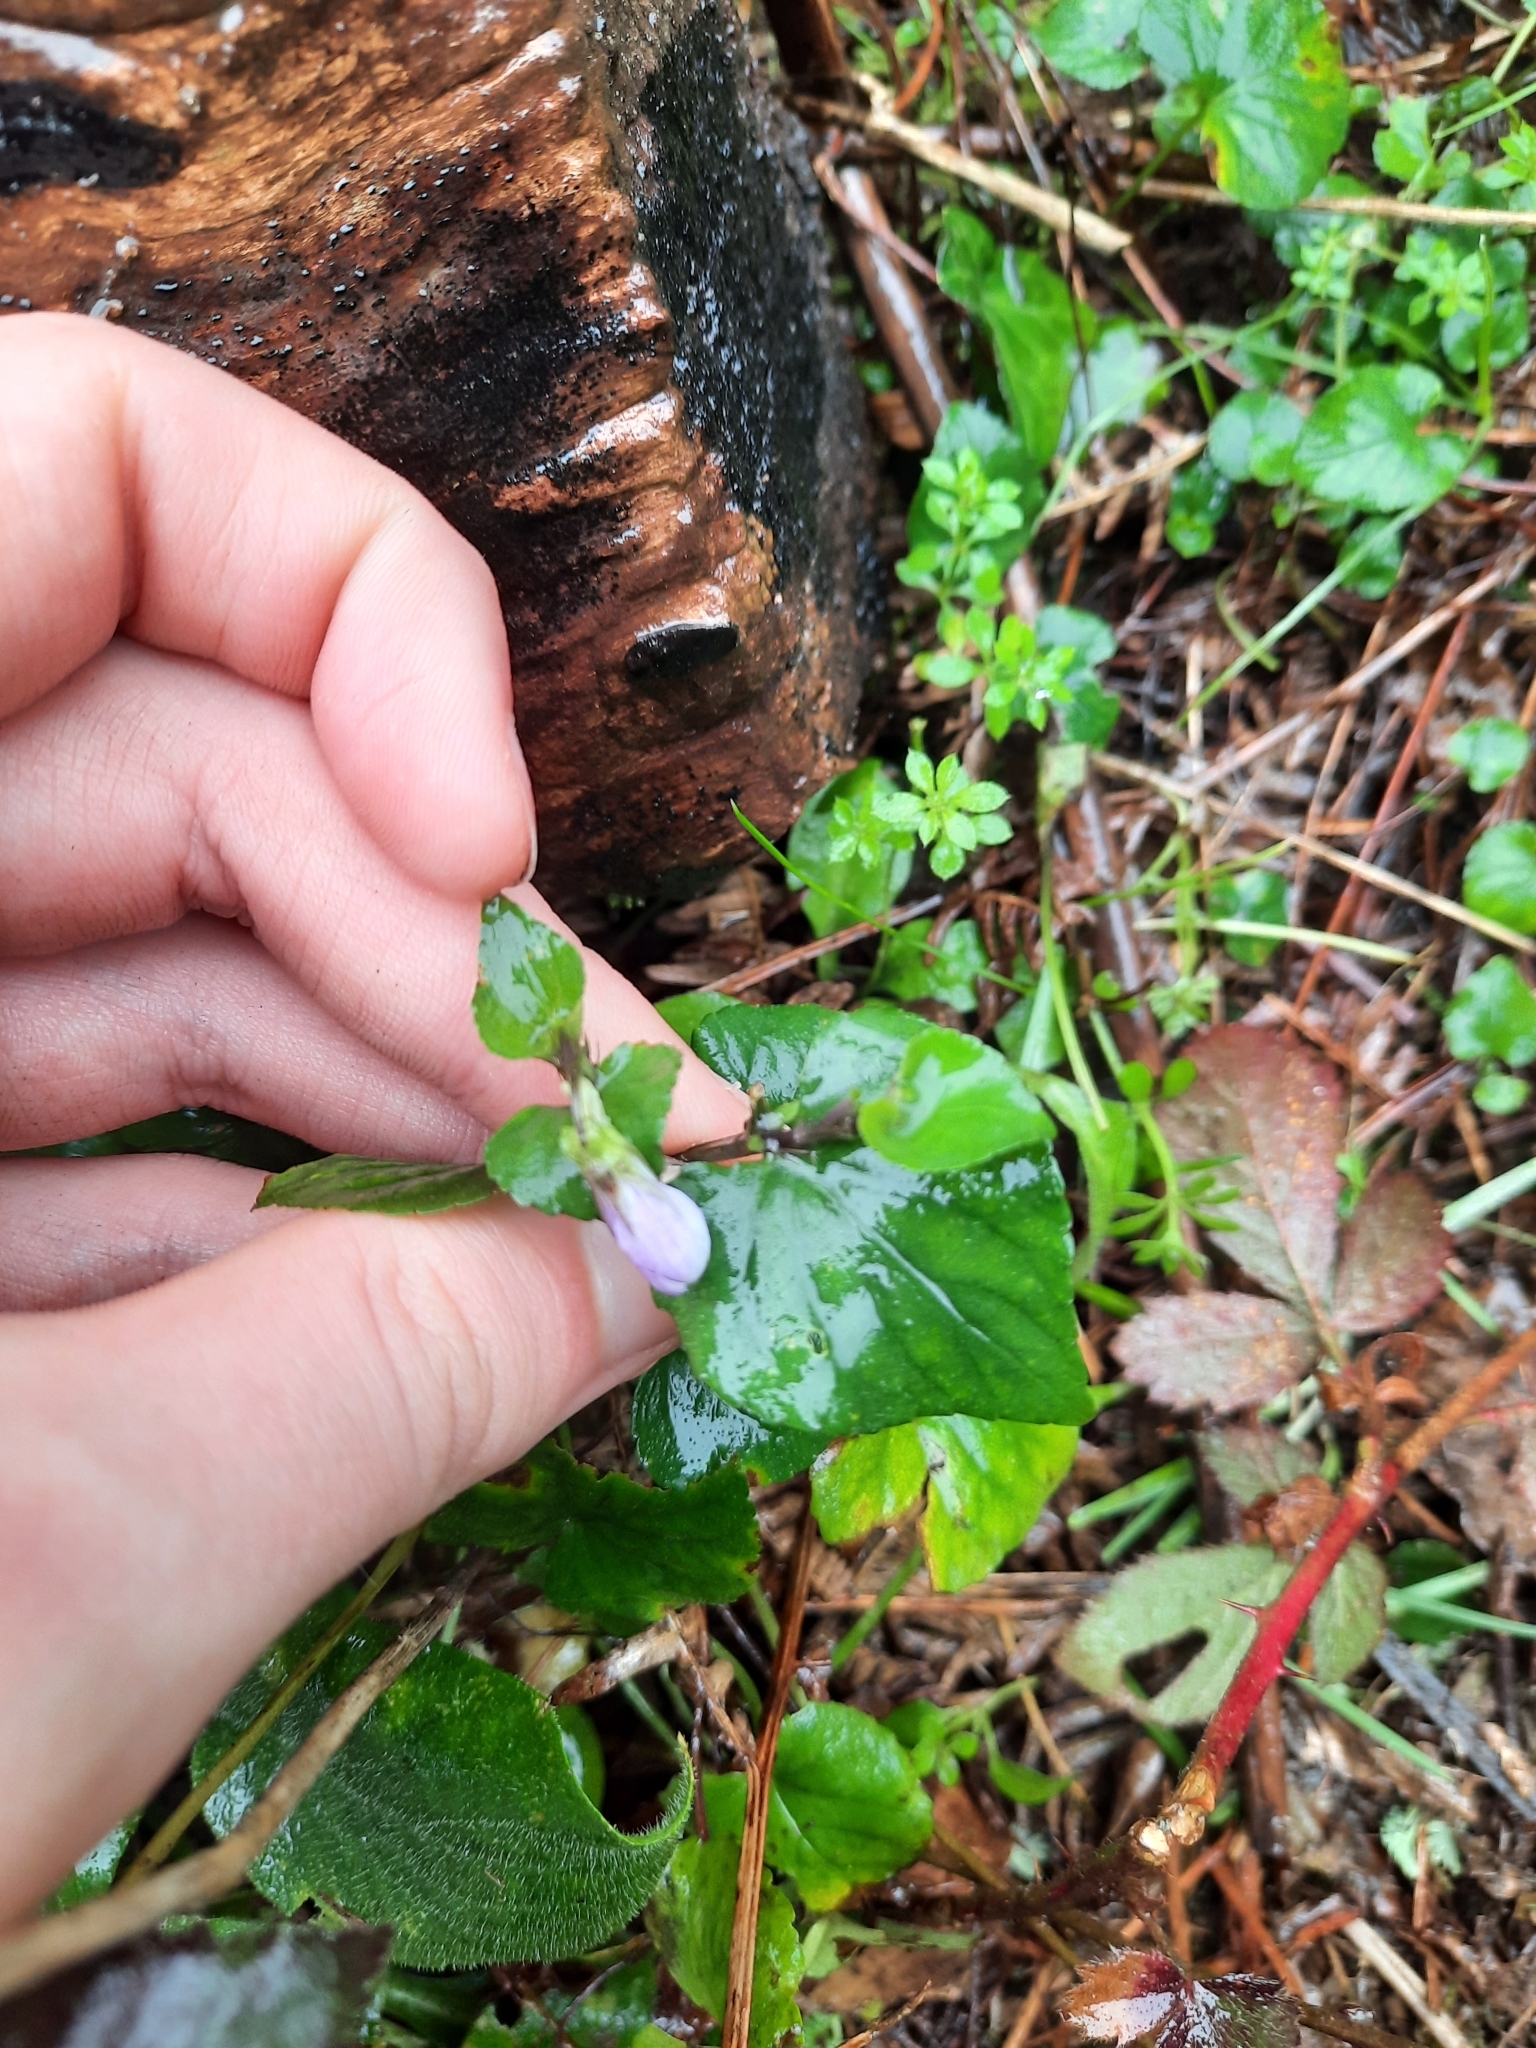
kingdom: Plantae
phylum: Tracheophyta
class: Magnoliopsida
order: Malpighiales
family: Violaceae
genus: Viola
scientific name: Viola riviniana
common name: Common dog-violet
